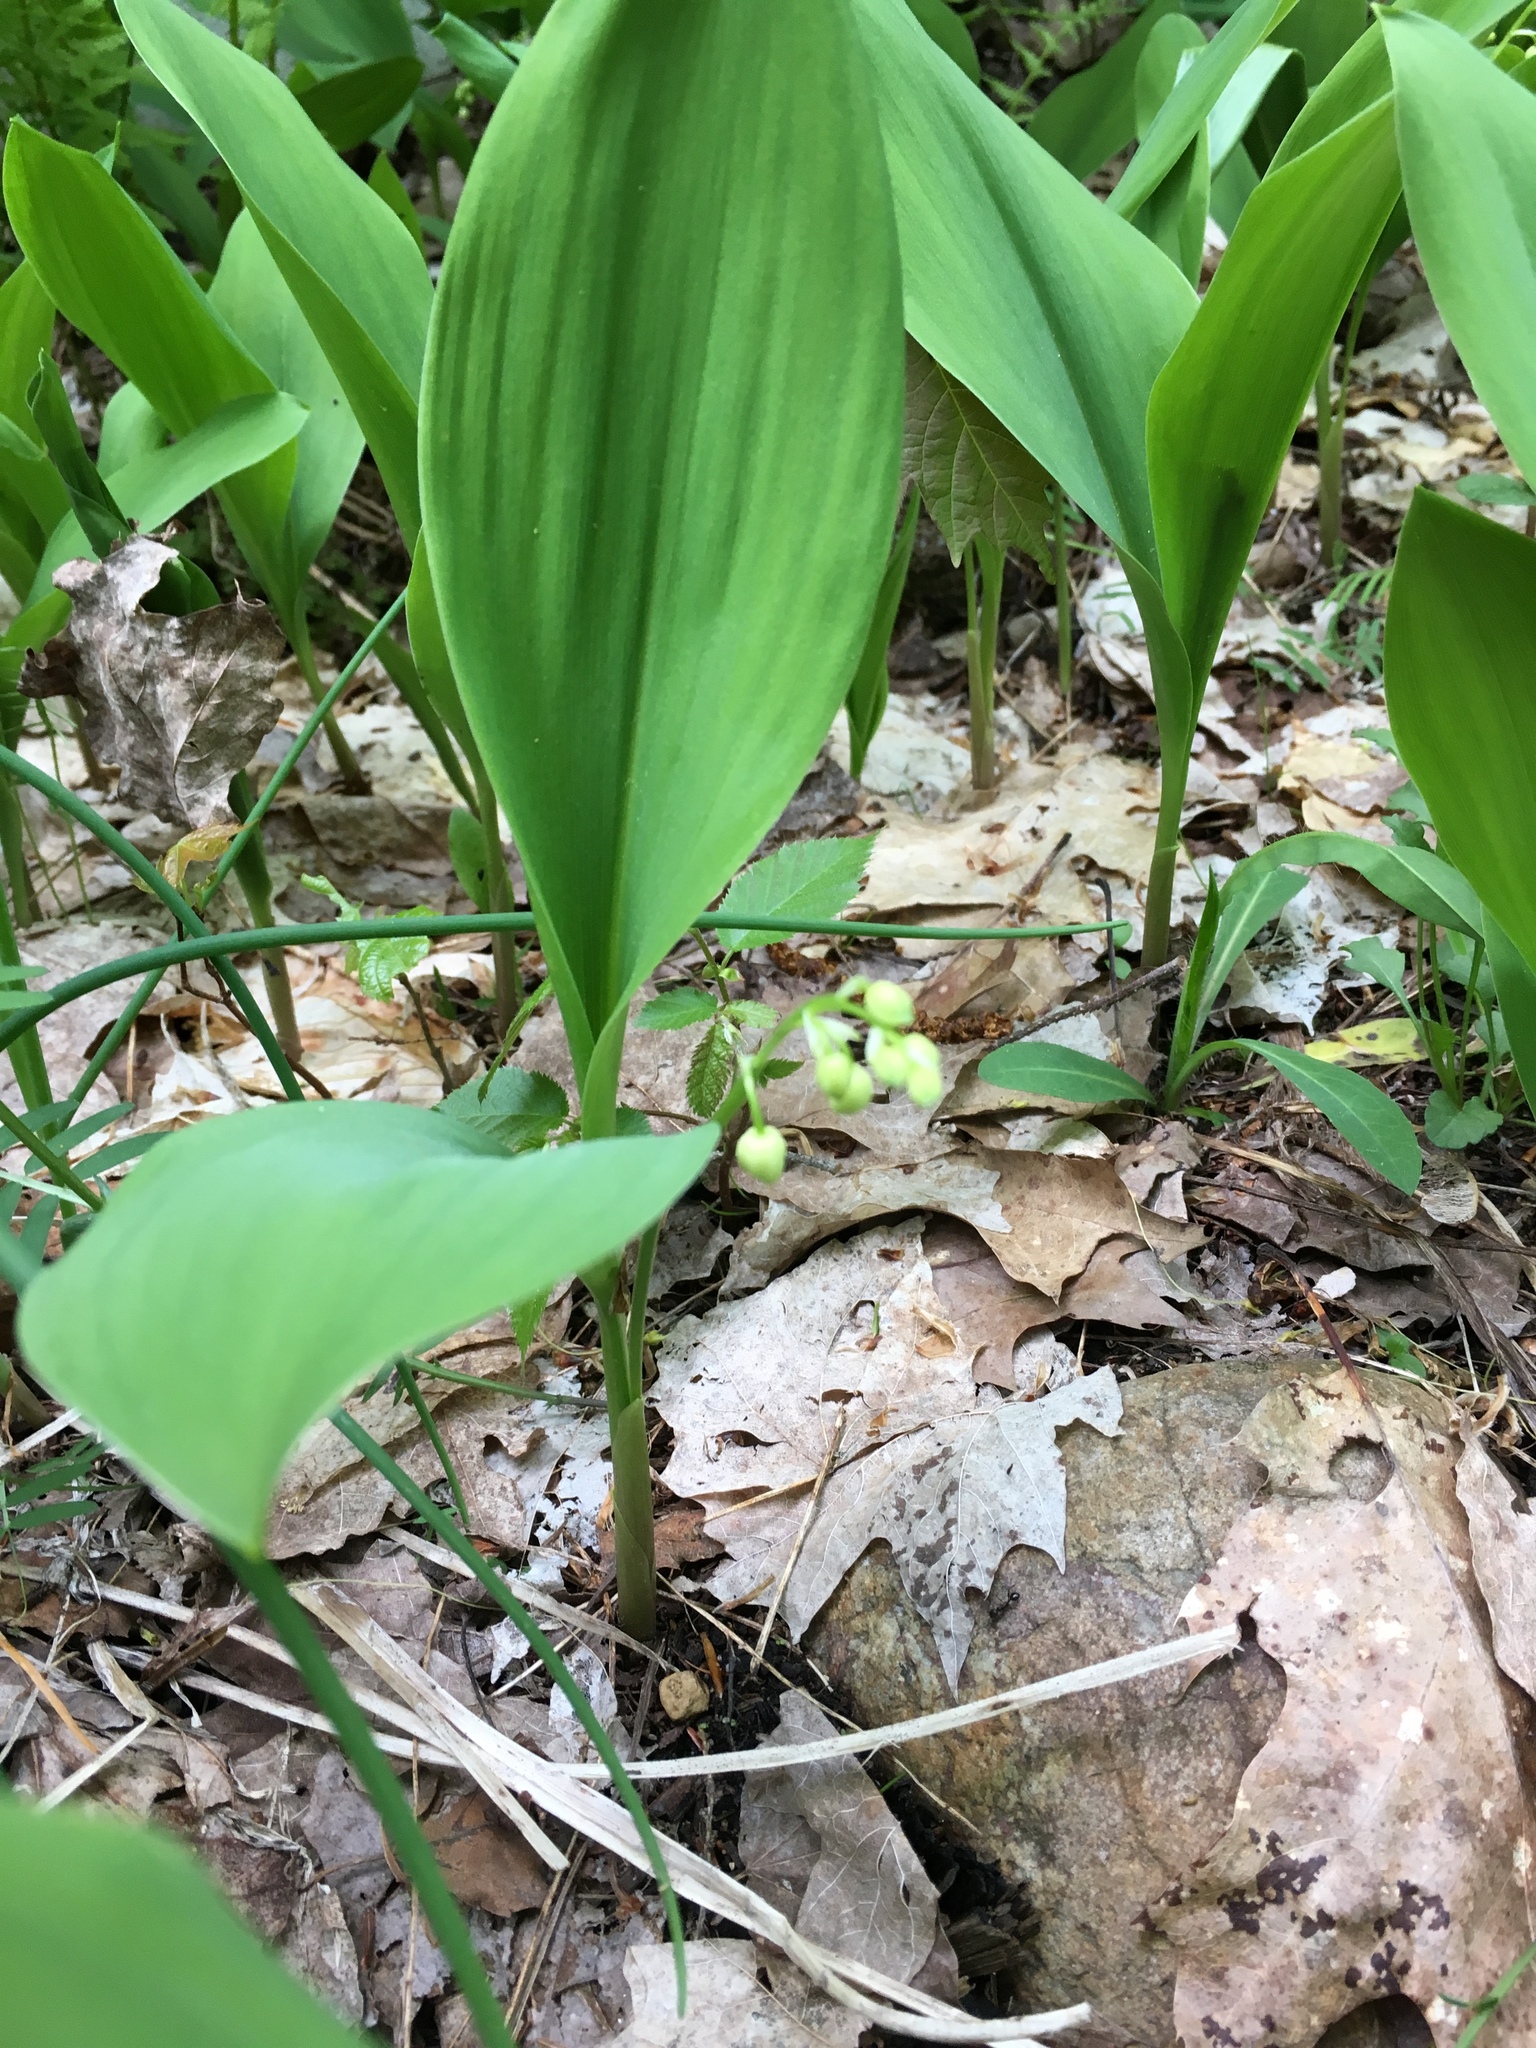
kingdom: Plantae
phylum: Tracheophyta
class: Liliopsida
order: Asparagales
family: Asparagaceae
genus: Convallaria
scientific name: Convallaria majalis
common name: Lily-of-the-valley
